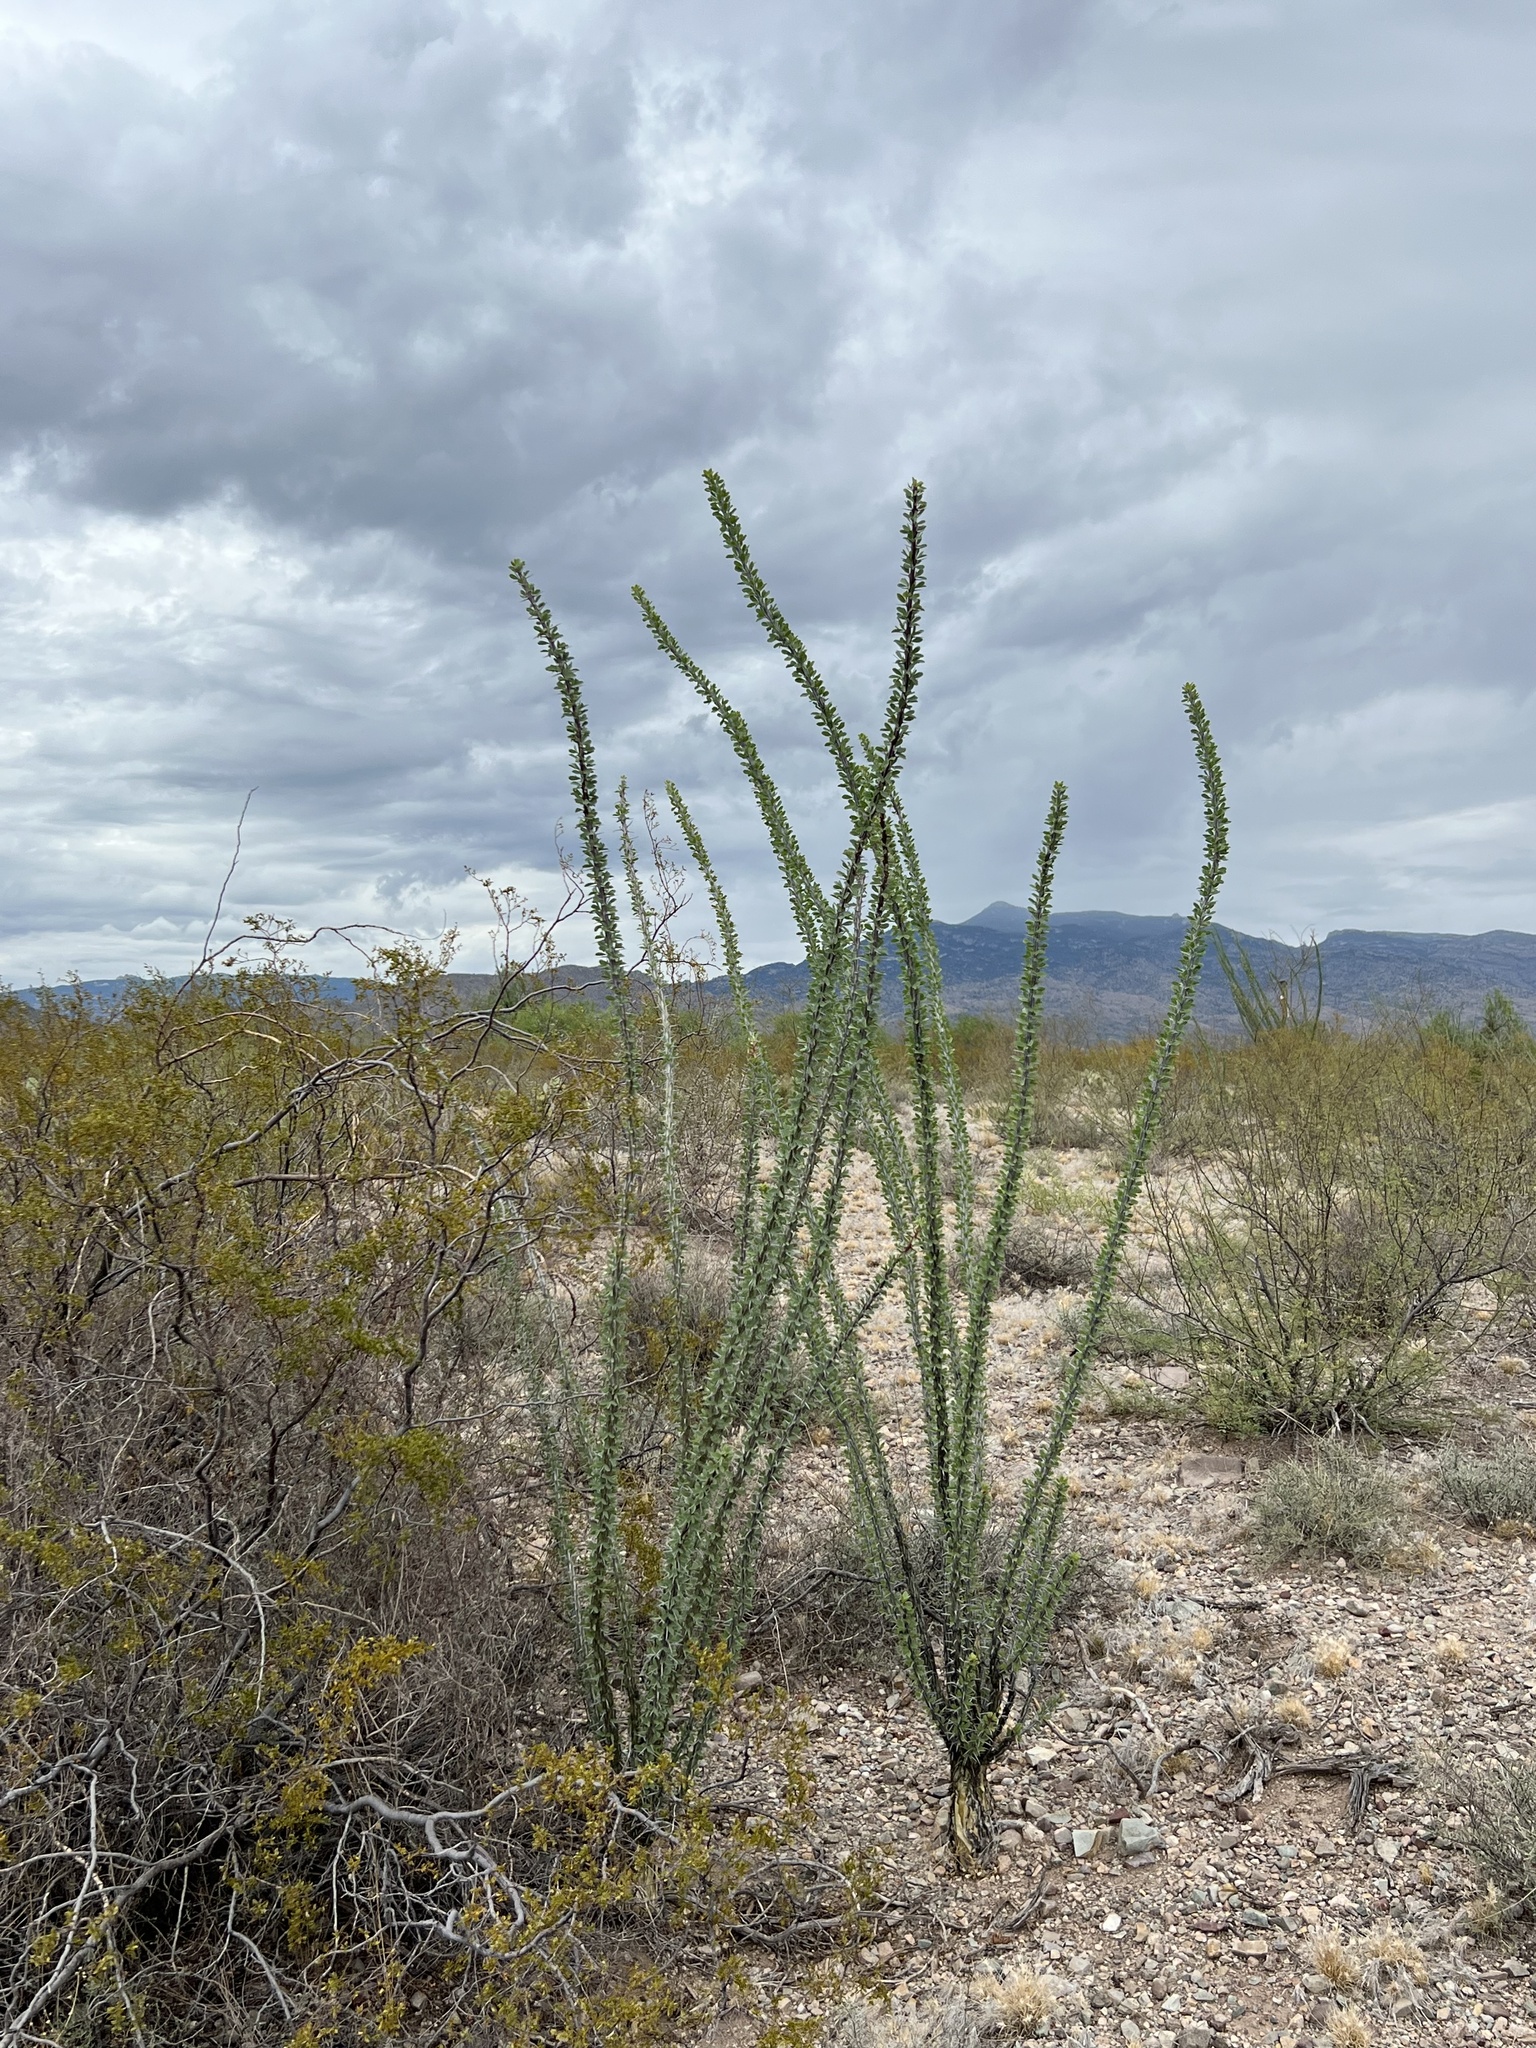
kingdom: Plantae
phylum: Tracheophyta
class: Magnoliopsida
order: Ericales
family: Fouquieriaceae
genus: Fouquieria
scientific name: Fouquieria splendens
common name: Vine-cactus
